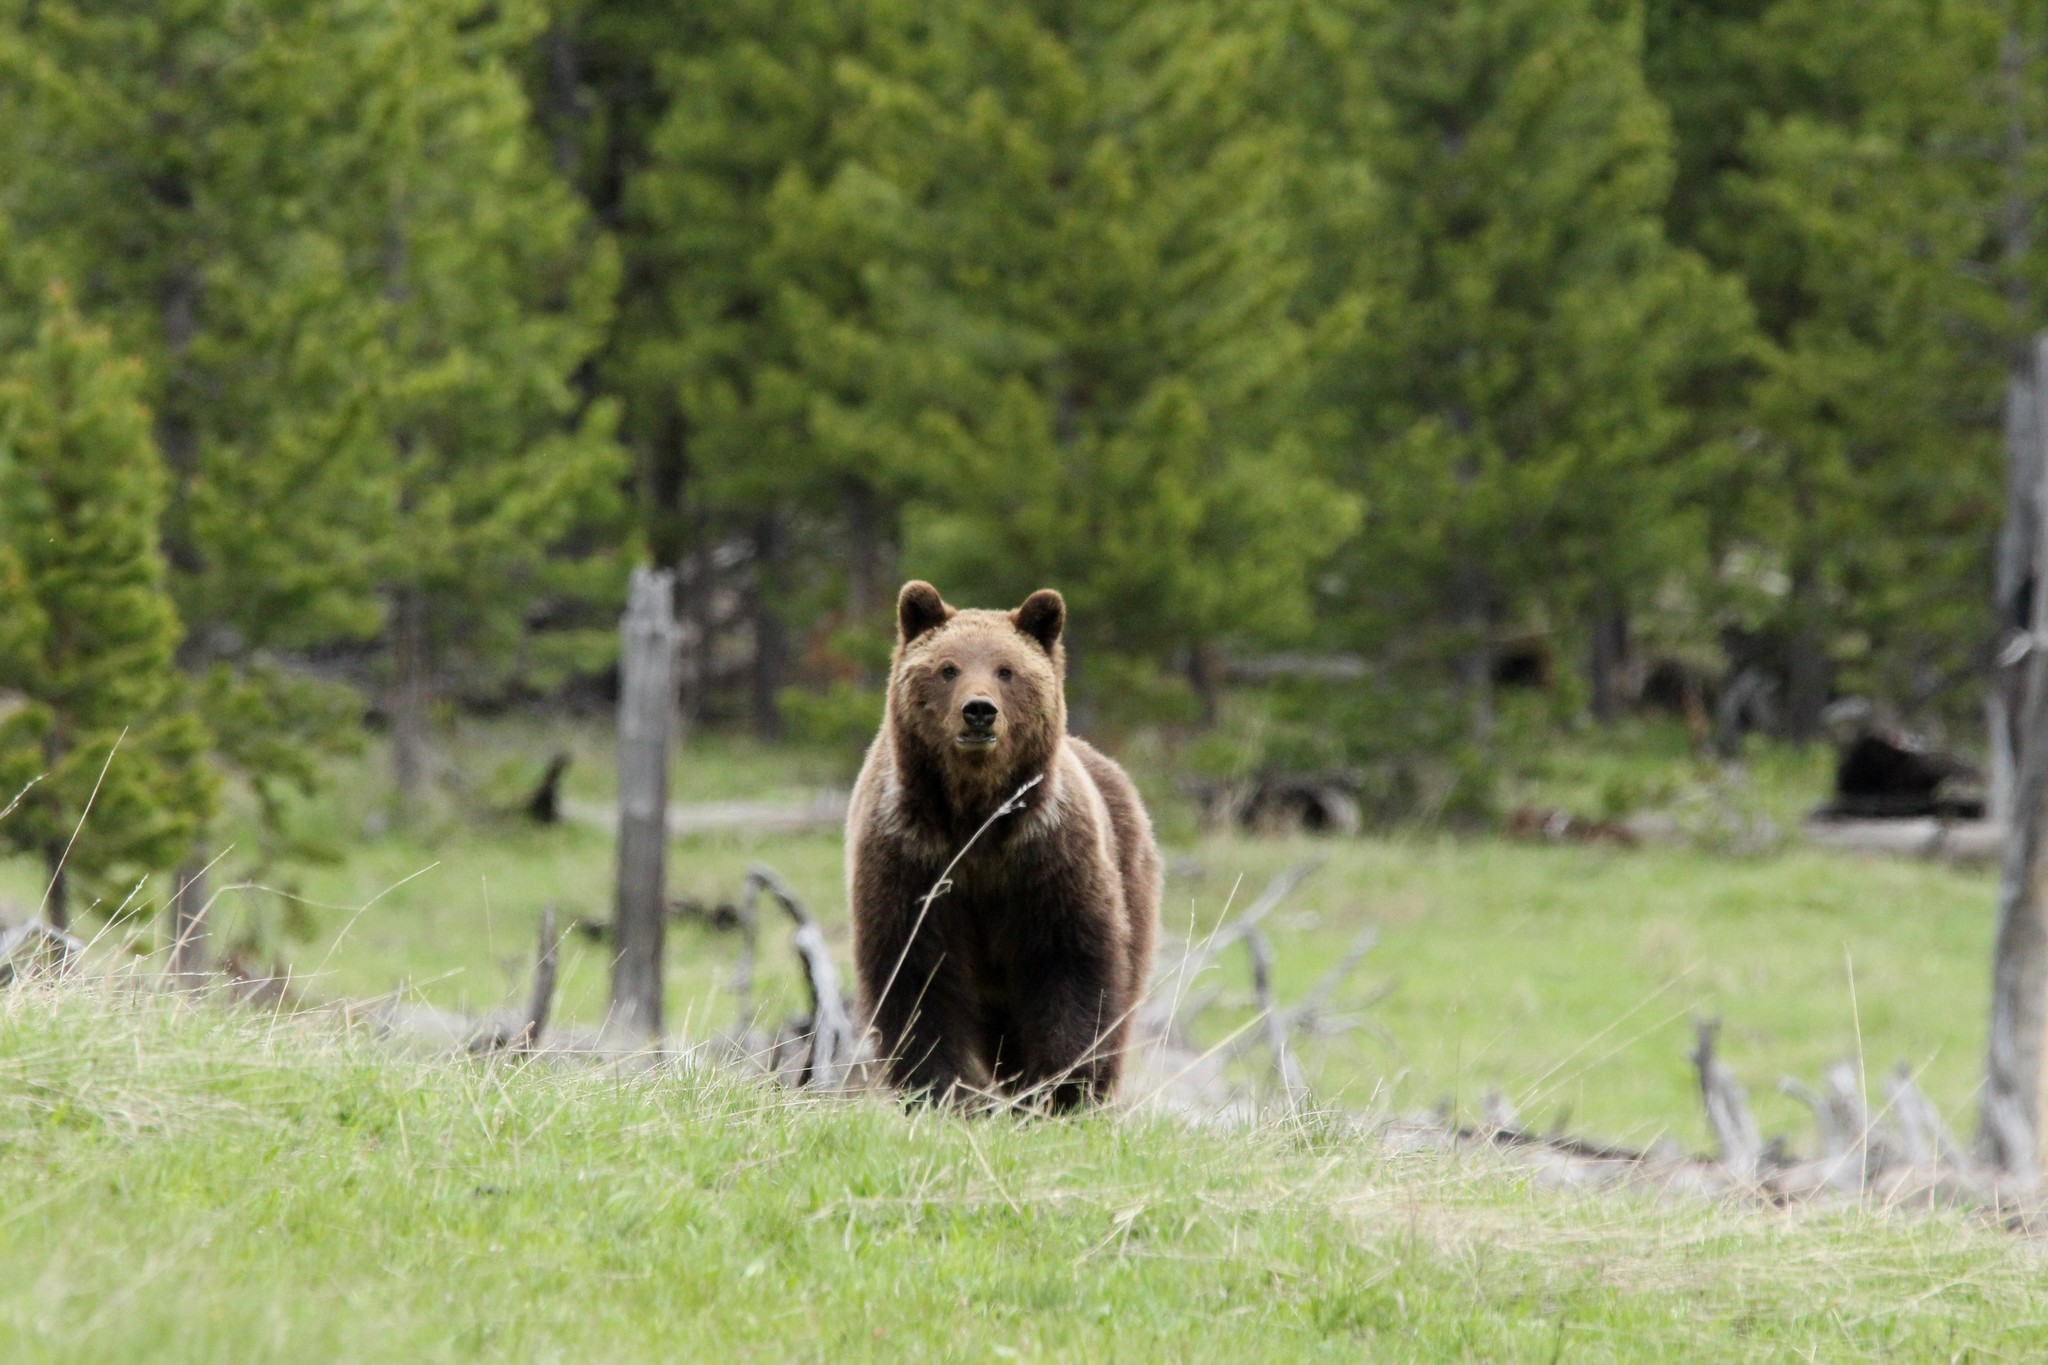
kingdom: Animalia
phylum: Chordata
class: Mammalia
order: Carnivora
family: Ursidae
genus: Ursus
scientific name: Ursus arctos
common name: Brown bear
